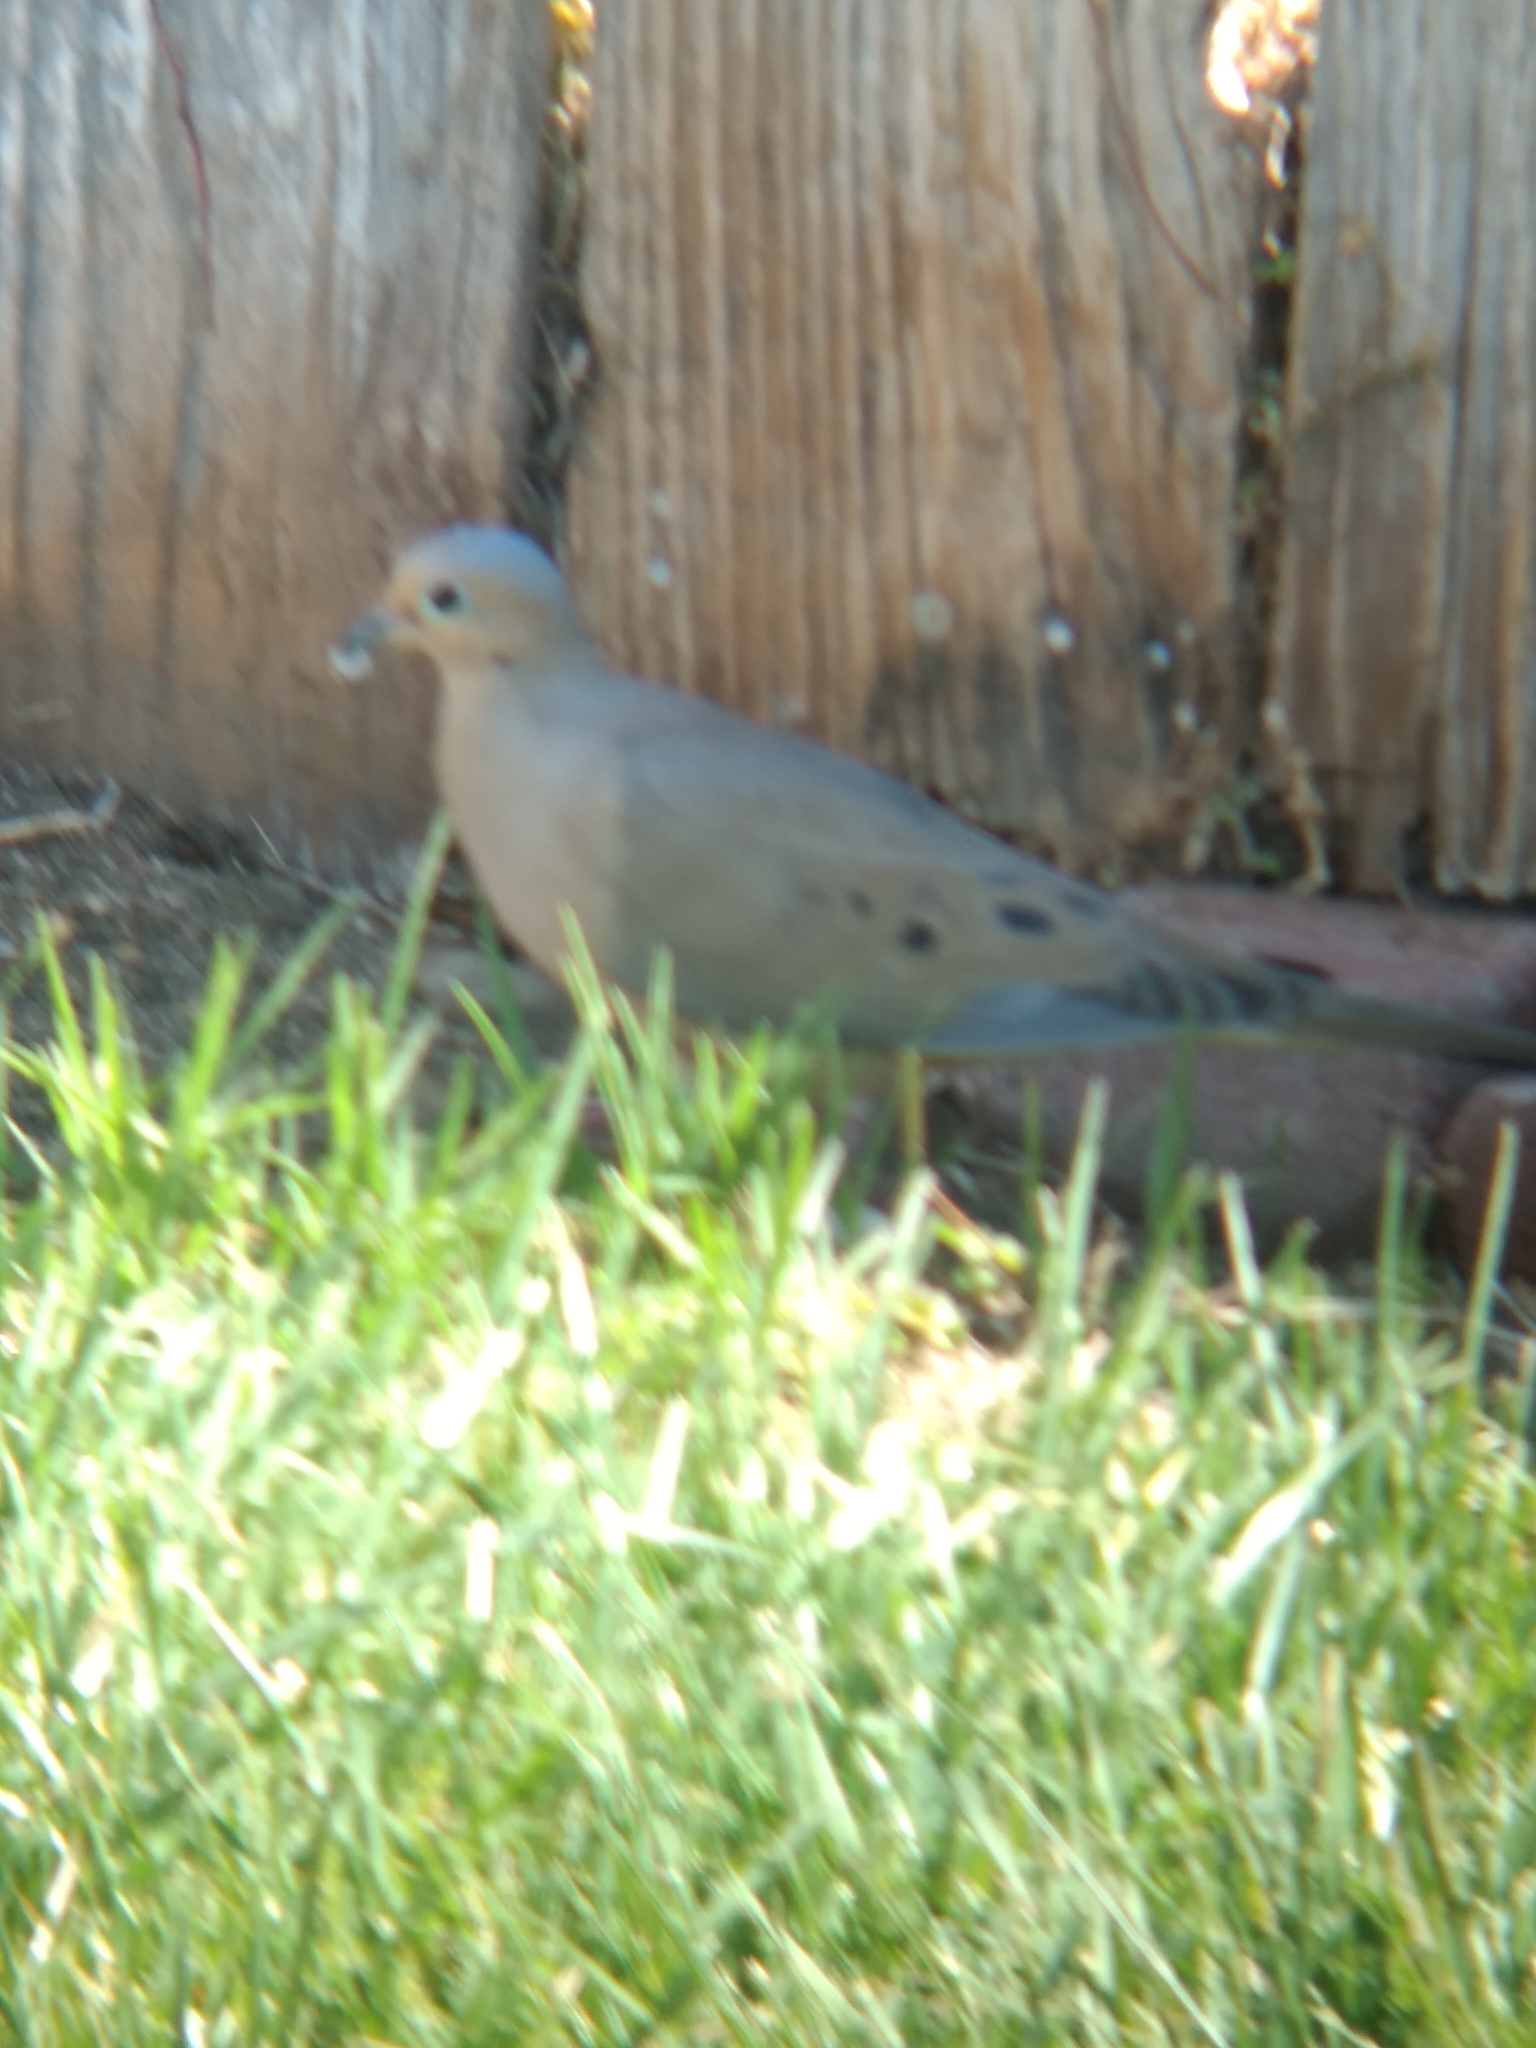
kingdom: Animalia
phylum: Chordata
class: Aves
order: Columbiformes
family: Columbidae
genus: Zenaida
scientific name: Zenaida macroura
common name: Mourning dove
